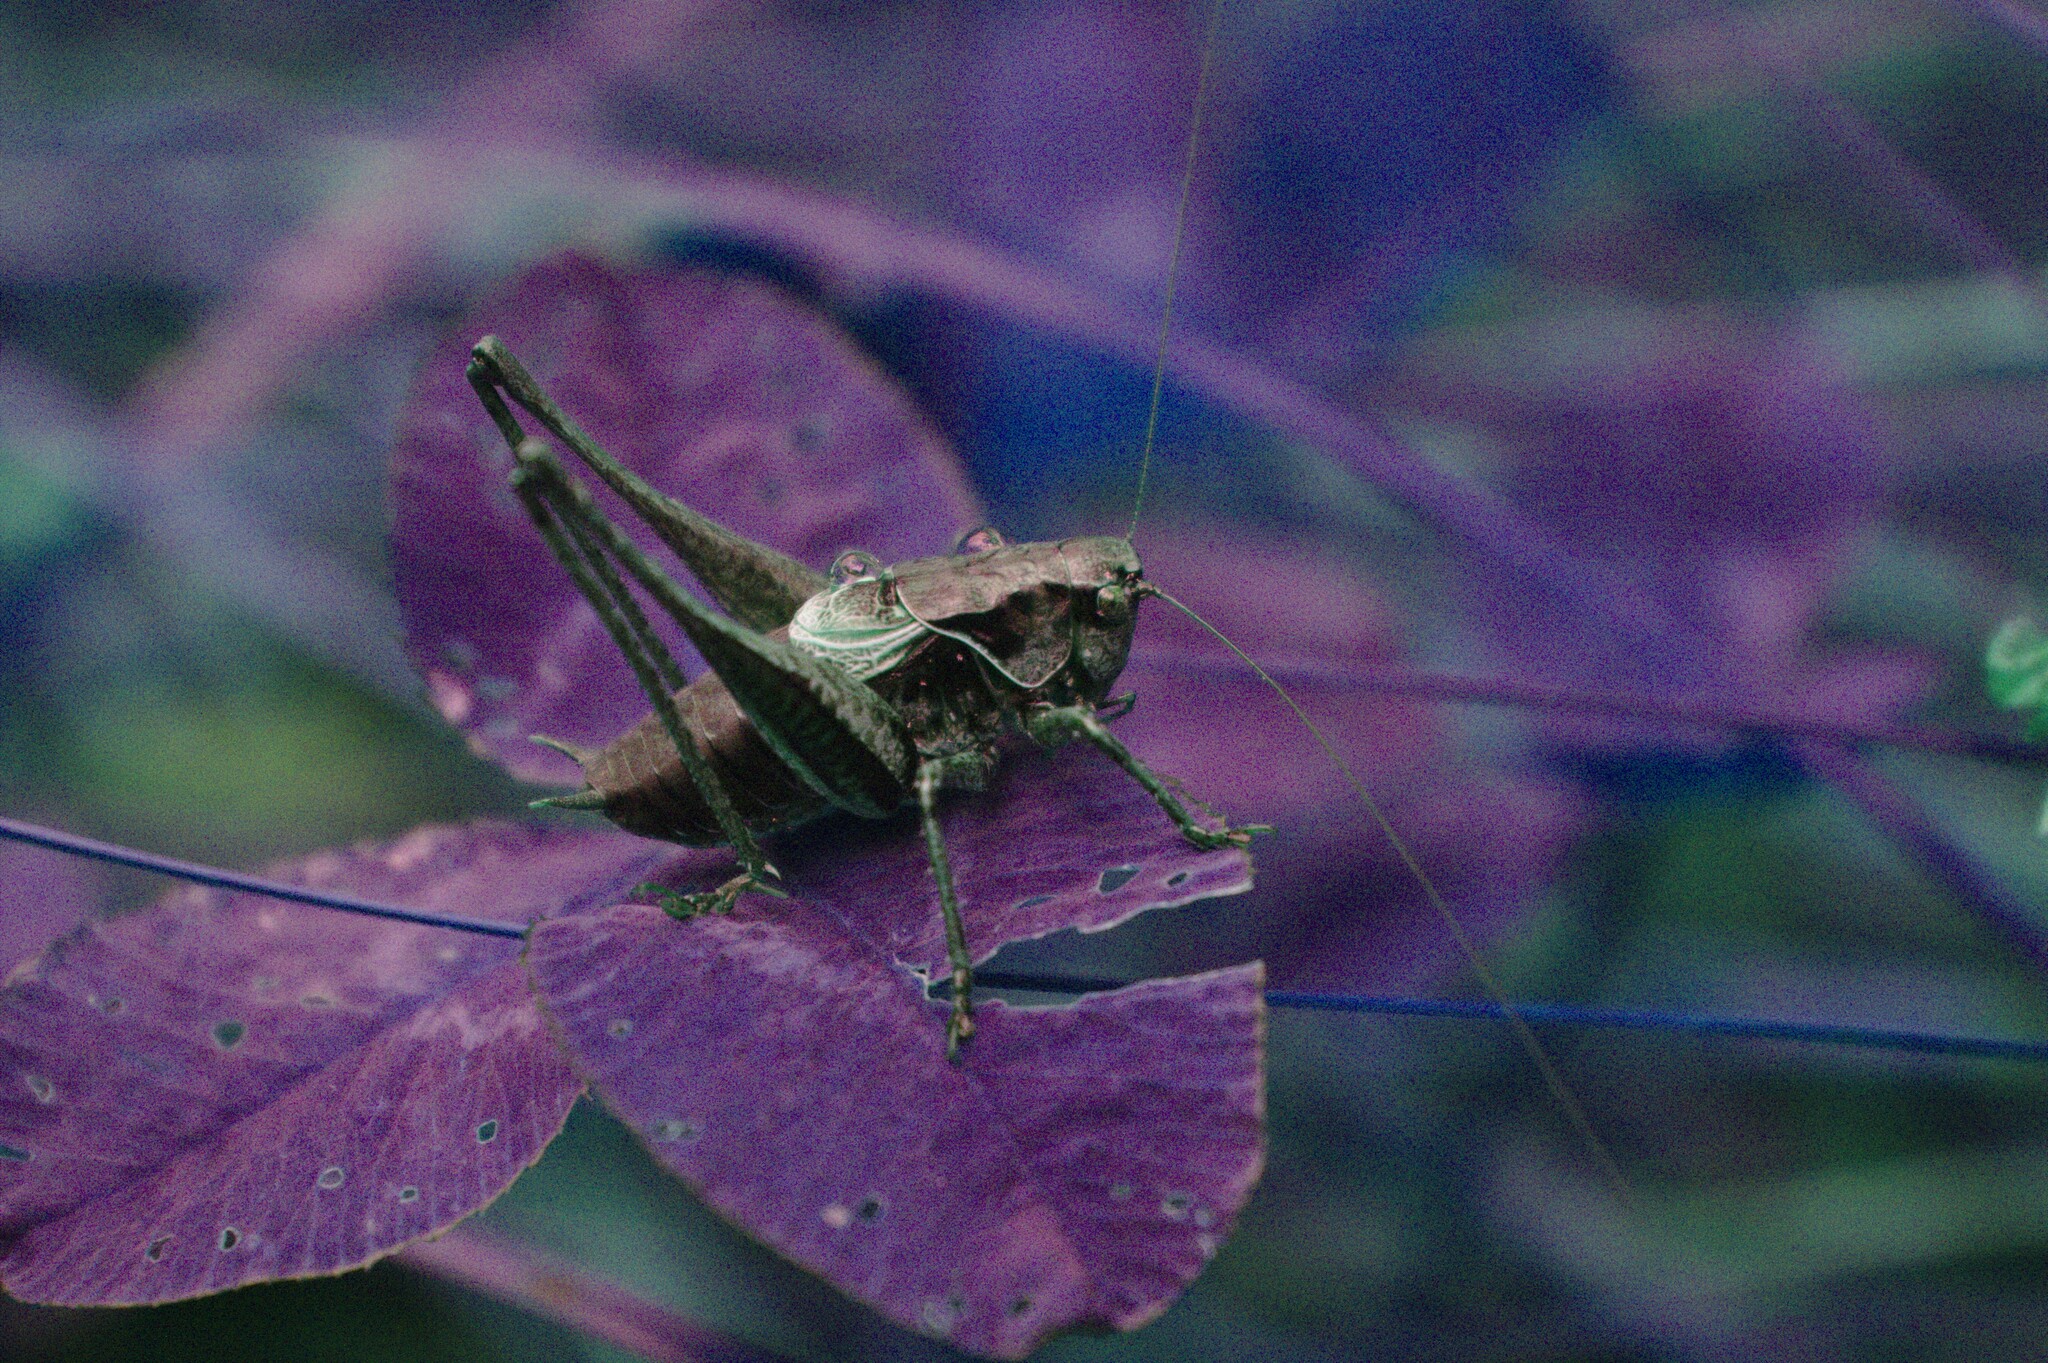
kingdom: Animalia
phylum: Arthropoda
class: Insecta
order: Orthoptera
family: Tettigoniidae
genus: Pholidoptera
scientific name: Pholidoptera griseoaptera
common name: Dark bush-cricket
